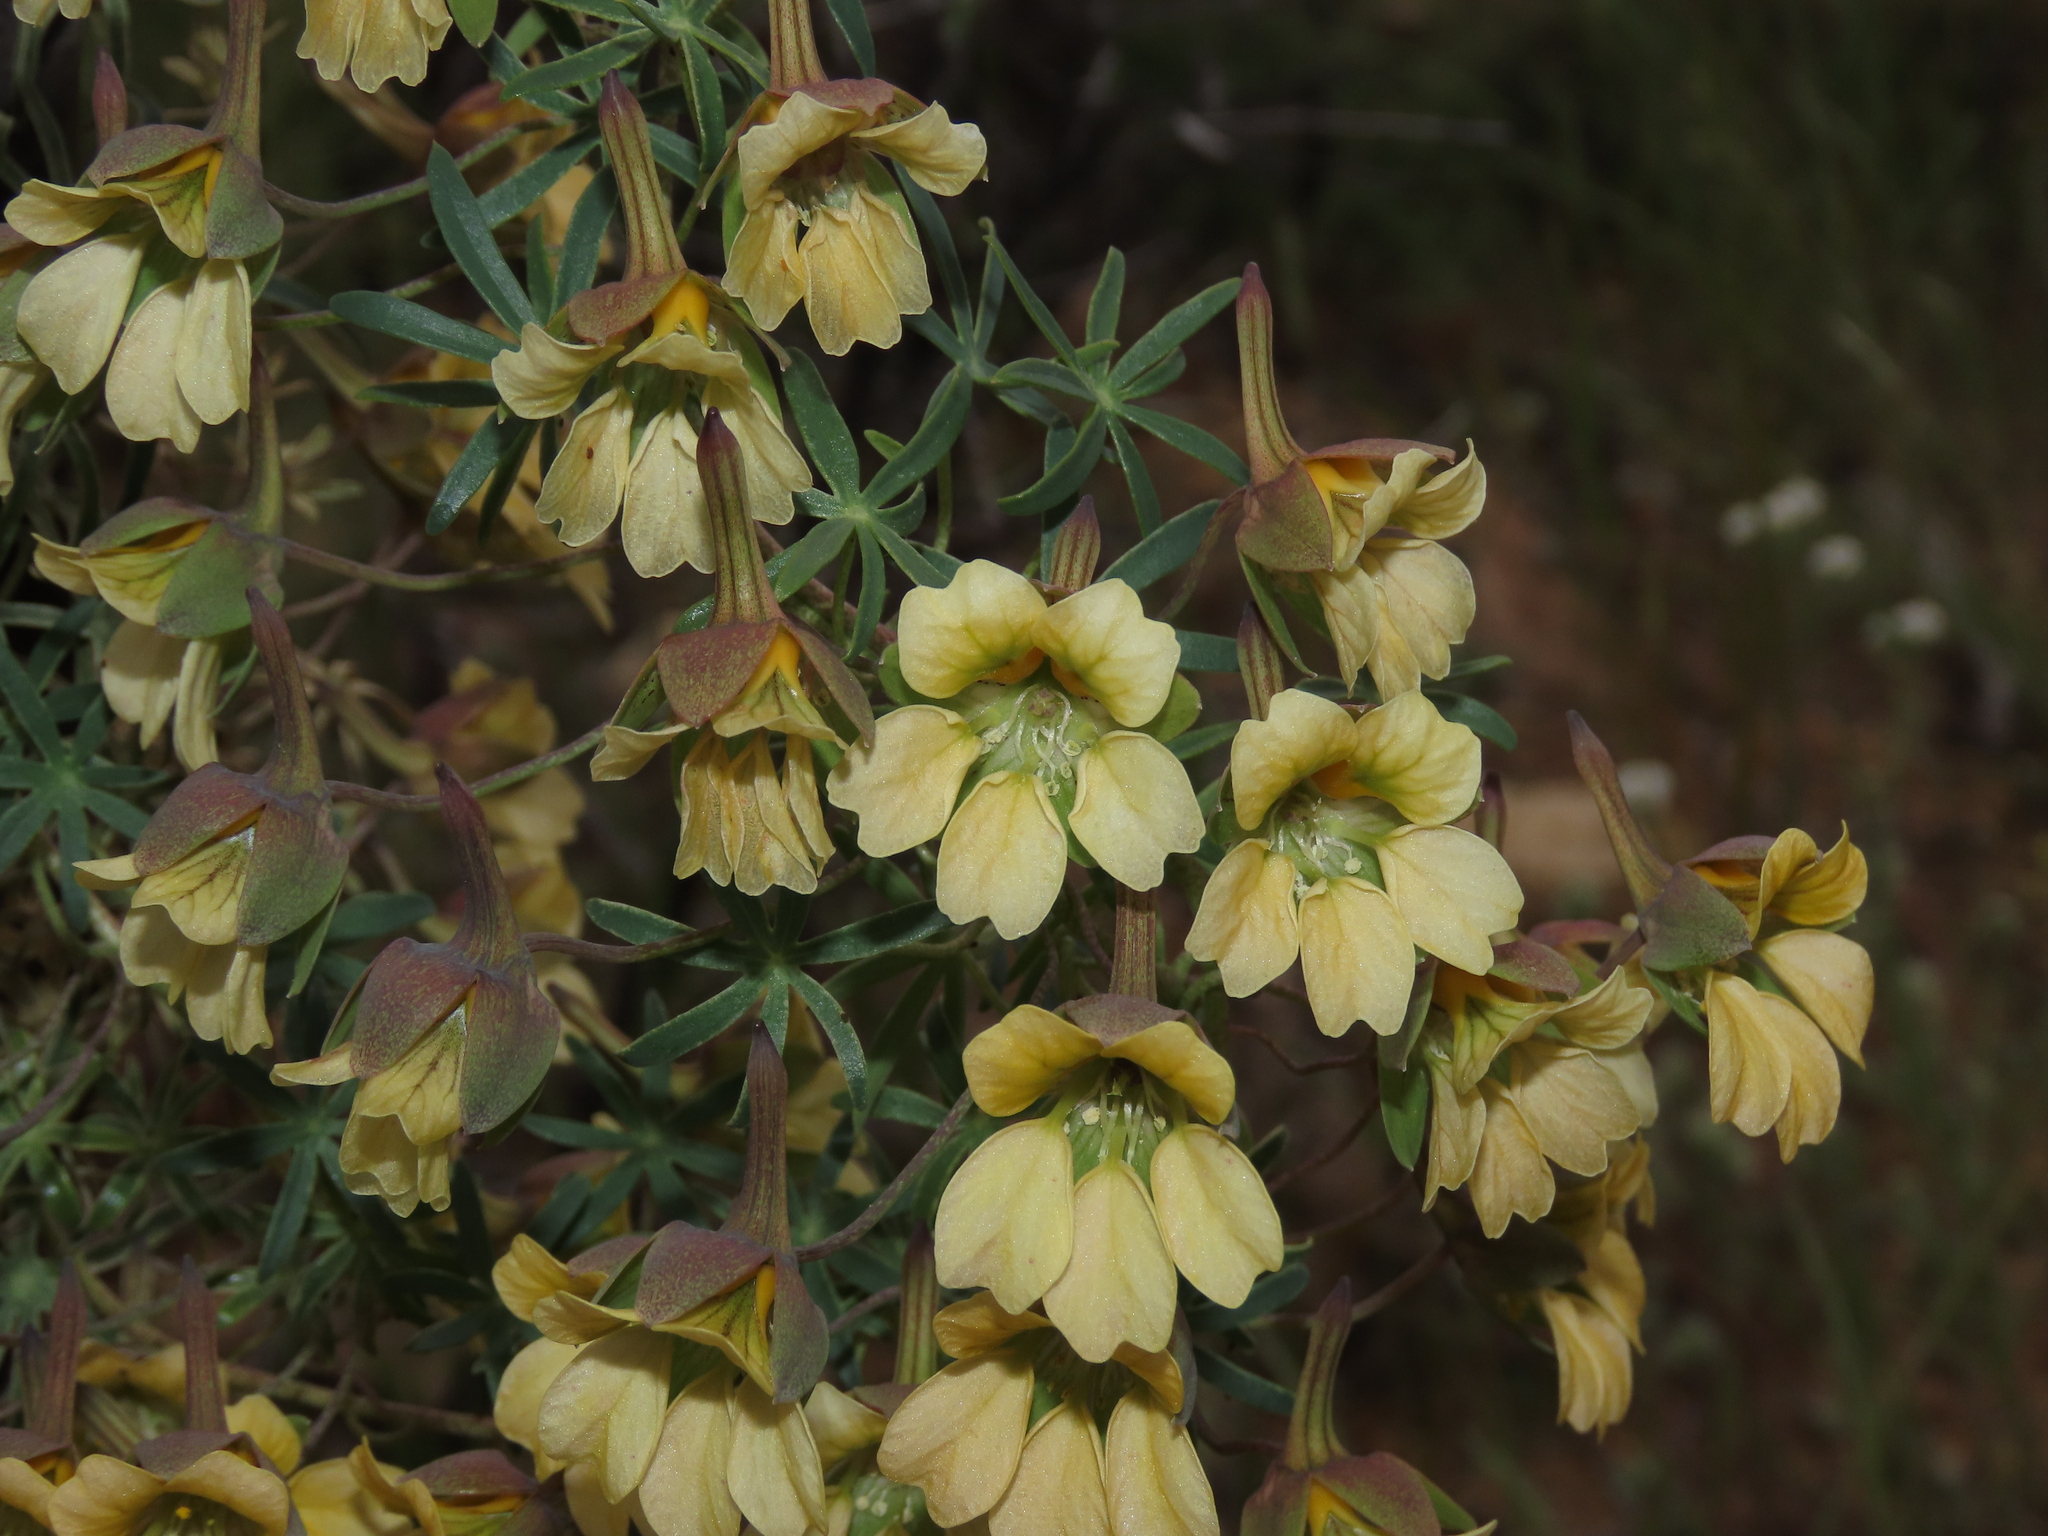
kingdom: Plantae
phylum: Tracheophyta
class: Magnoliopsida
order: Brassicales
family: Tropaeolaceae
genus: Tropaeolum
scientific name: Tropaeolum kingii
